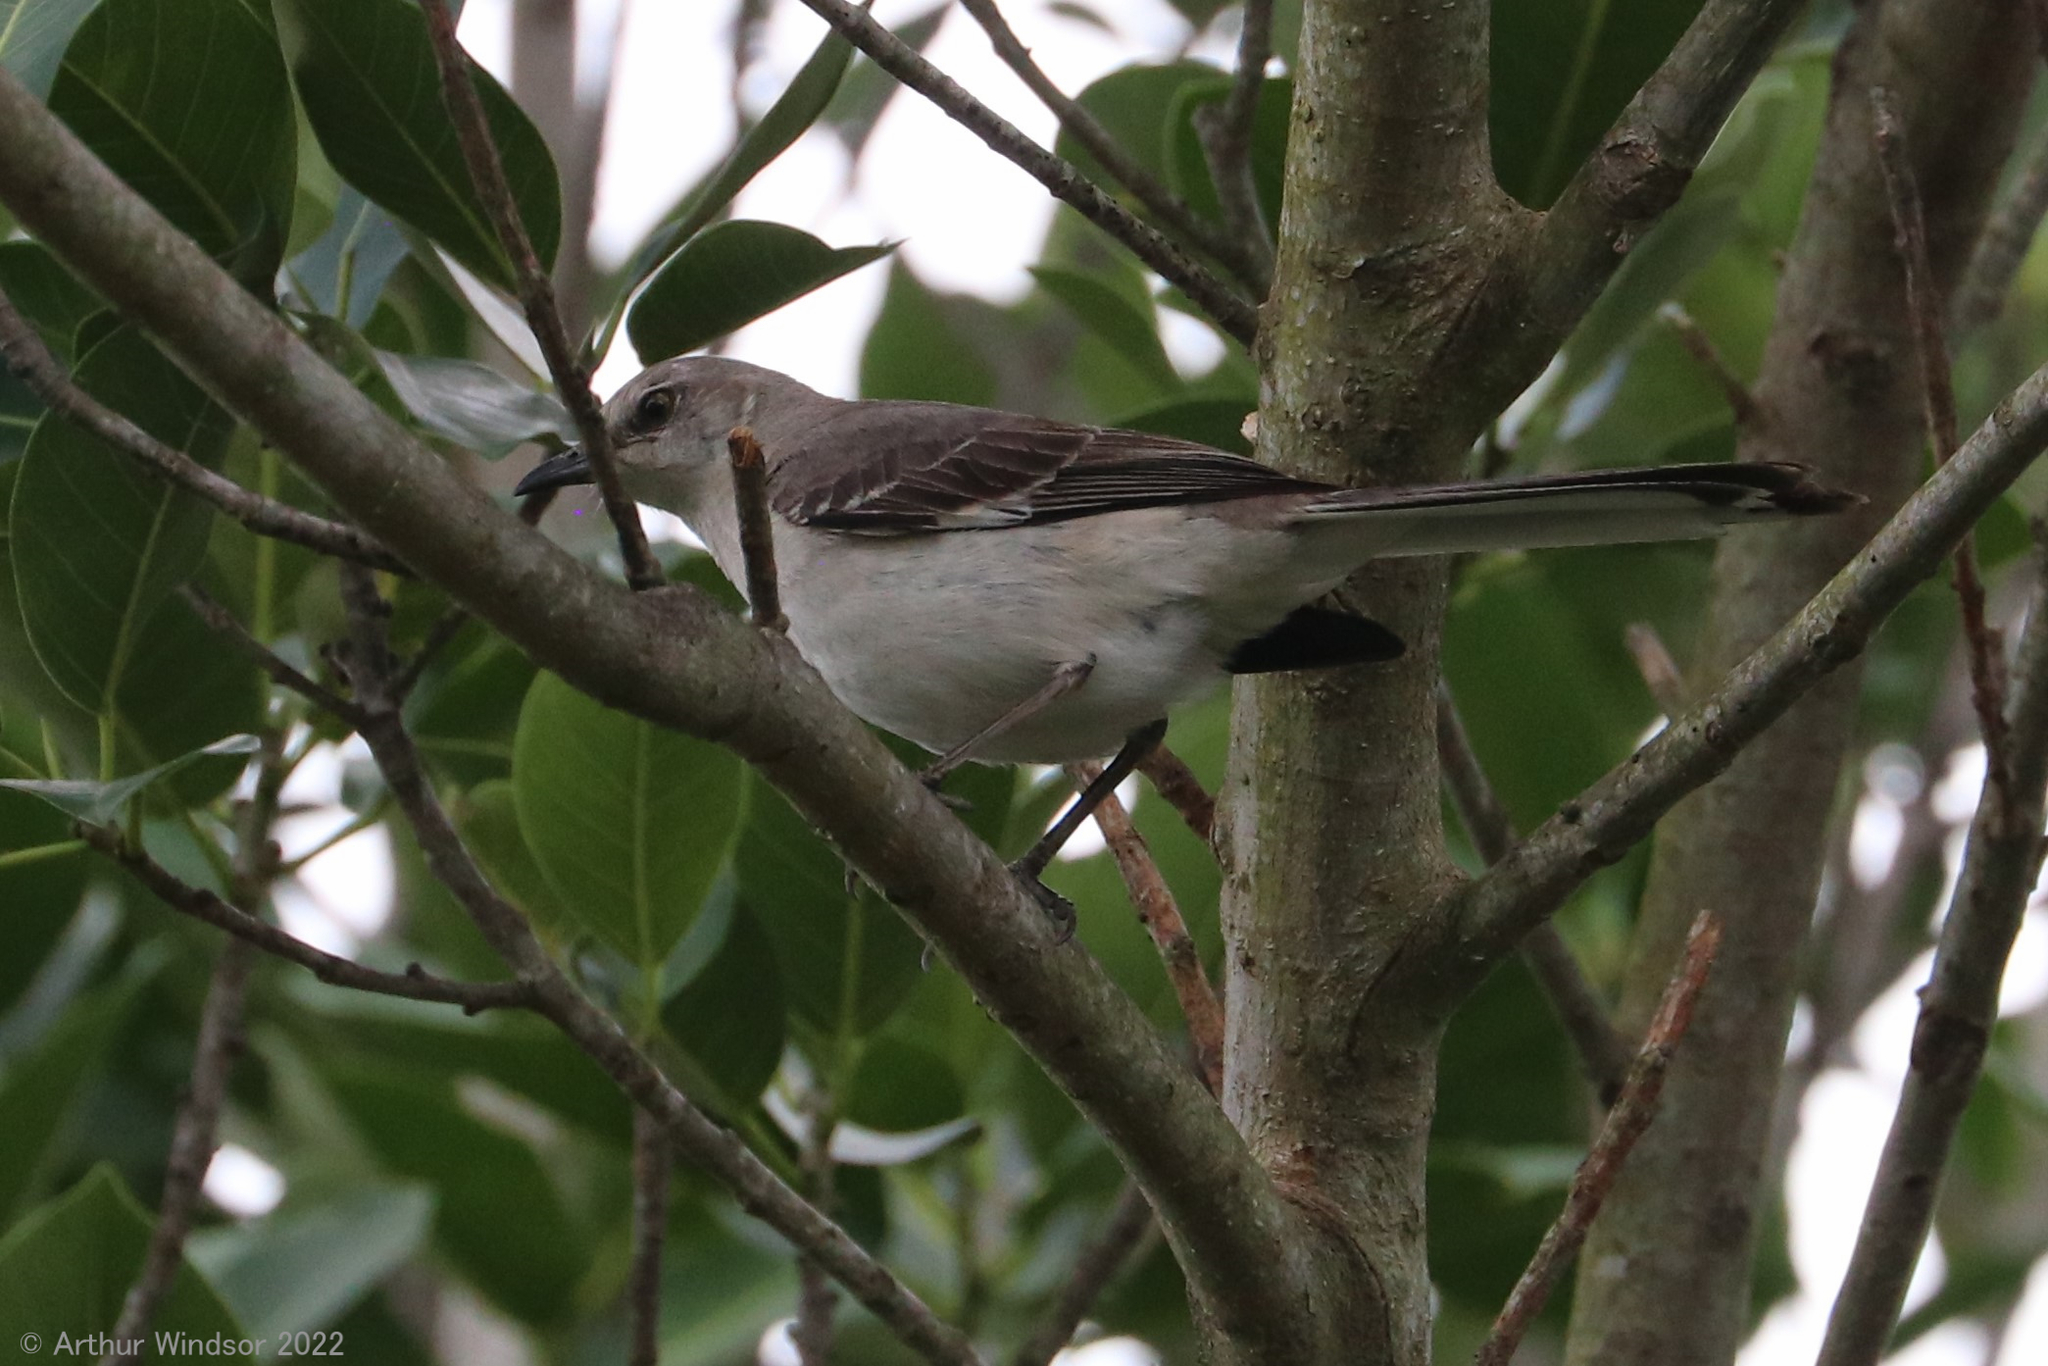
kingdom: Animalia
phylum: Chordata
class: Aves
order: Passeriformes
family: Mimidae
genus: Mimus
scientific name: Mimus polyglottos
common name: Northern mockingbird
